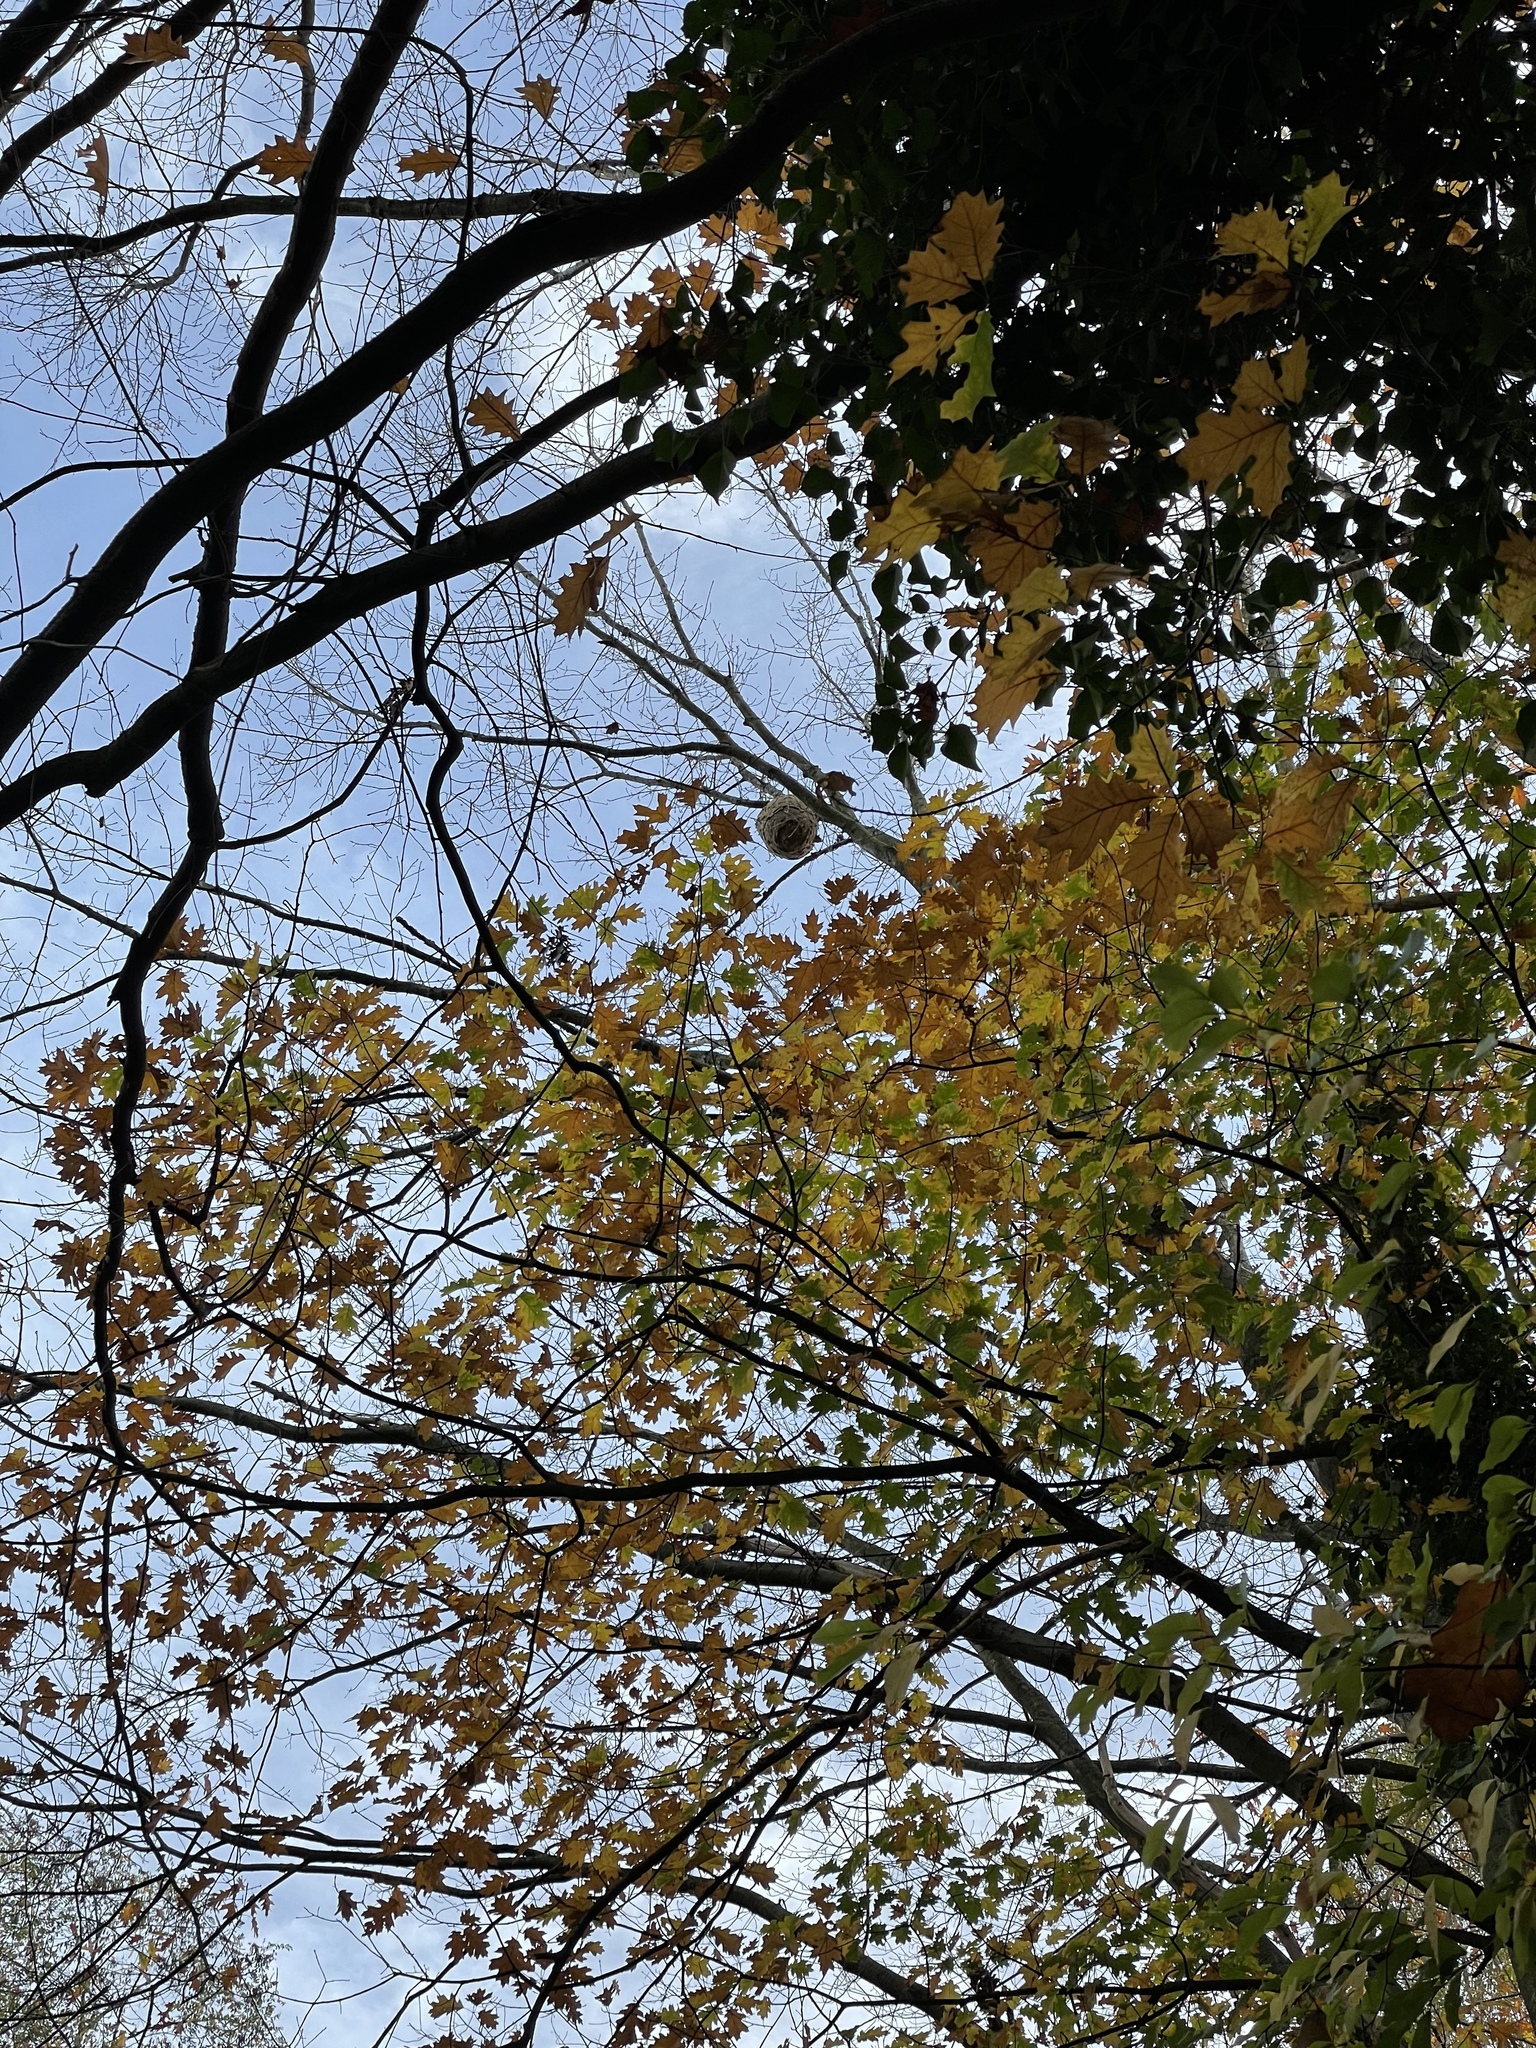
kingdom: Animalia
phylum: Arthropoda
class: Insecta
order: Hymenoptera
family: Vespidae
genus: Vespa
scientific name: Vespa velutina
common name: Asian hornet
